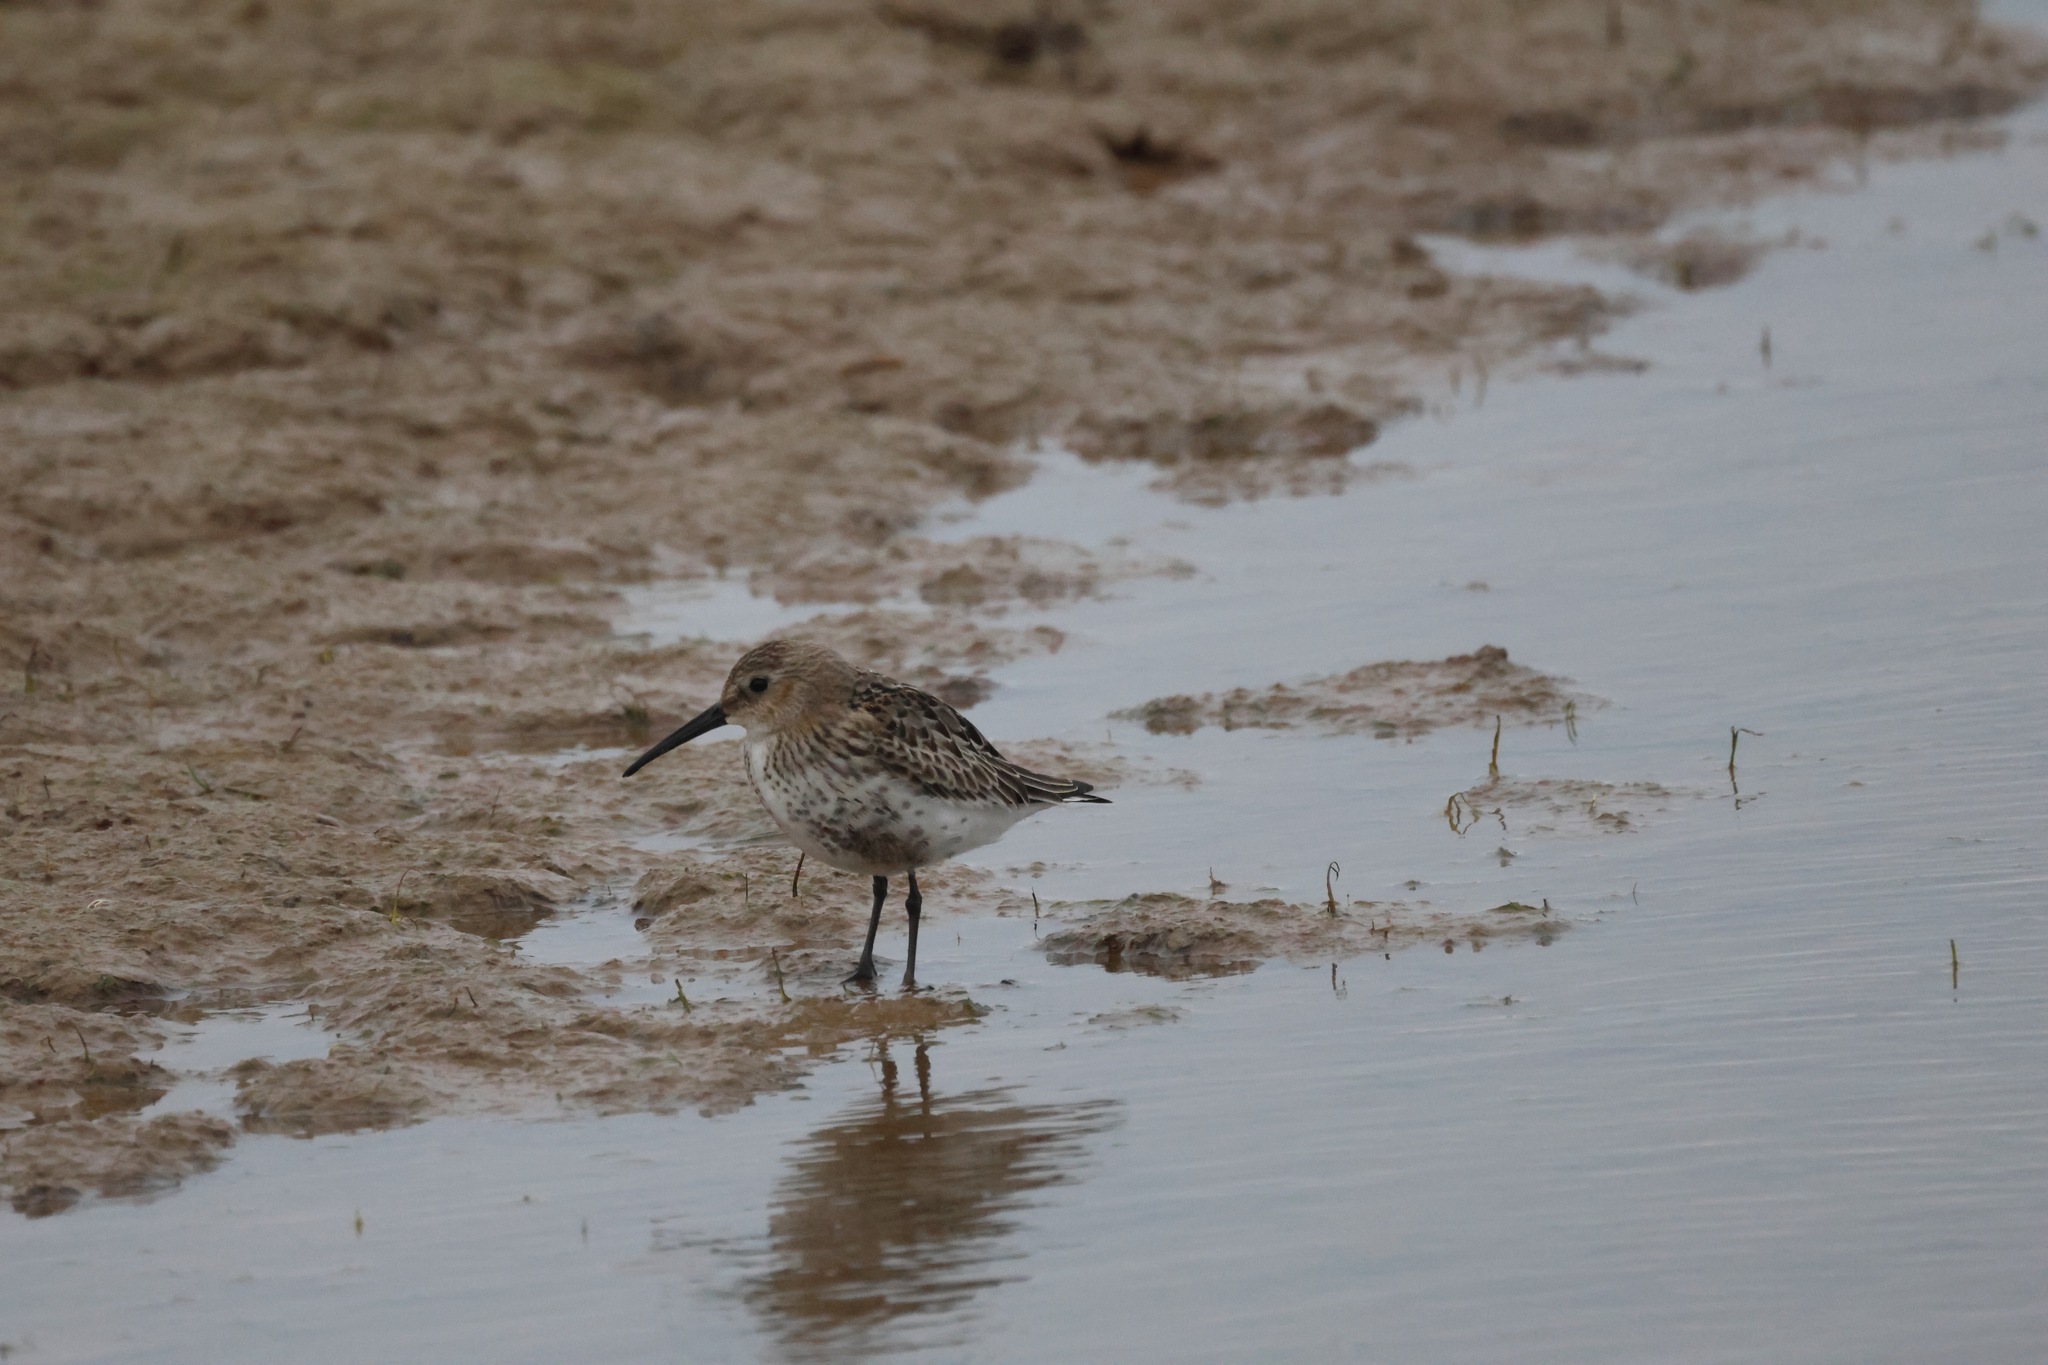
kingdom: Animalia
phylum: Chordata
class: Aves
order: Charadriiformes
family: Scolopacidae
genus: Calidris
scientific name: Calidris alpina
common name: Dunlin
